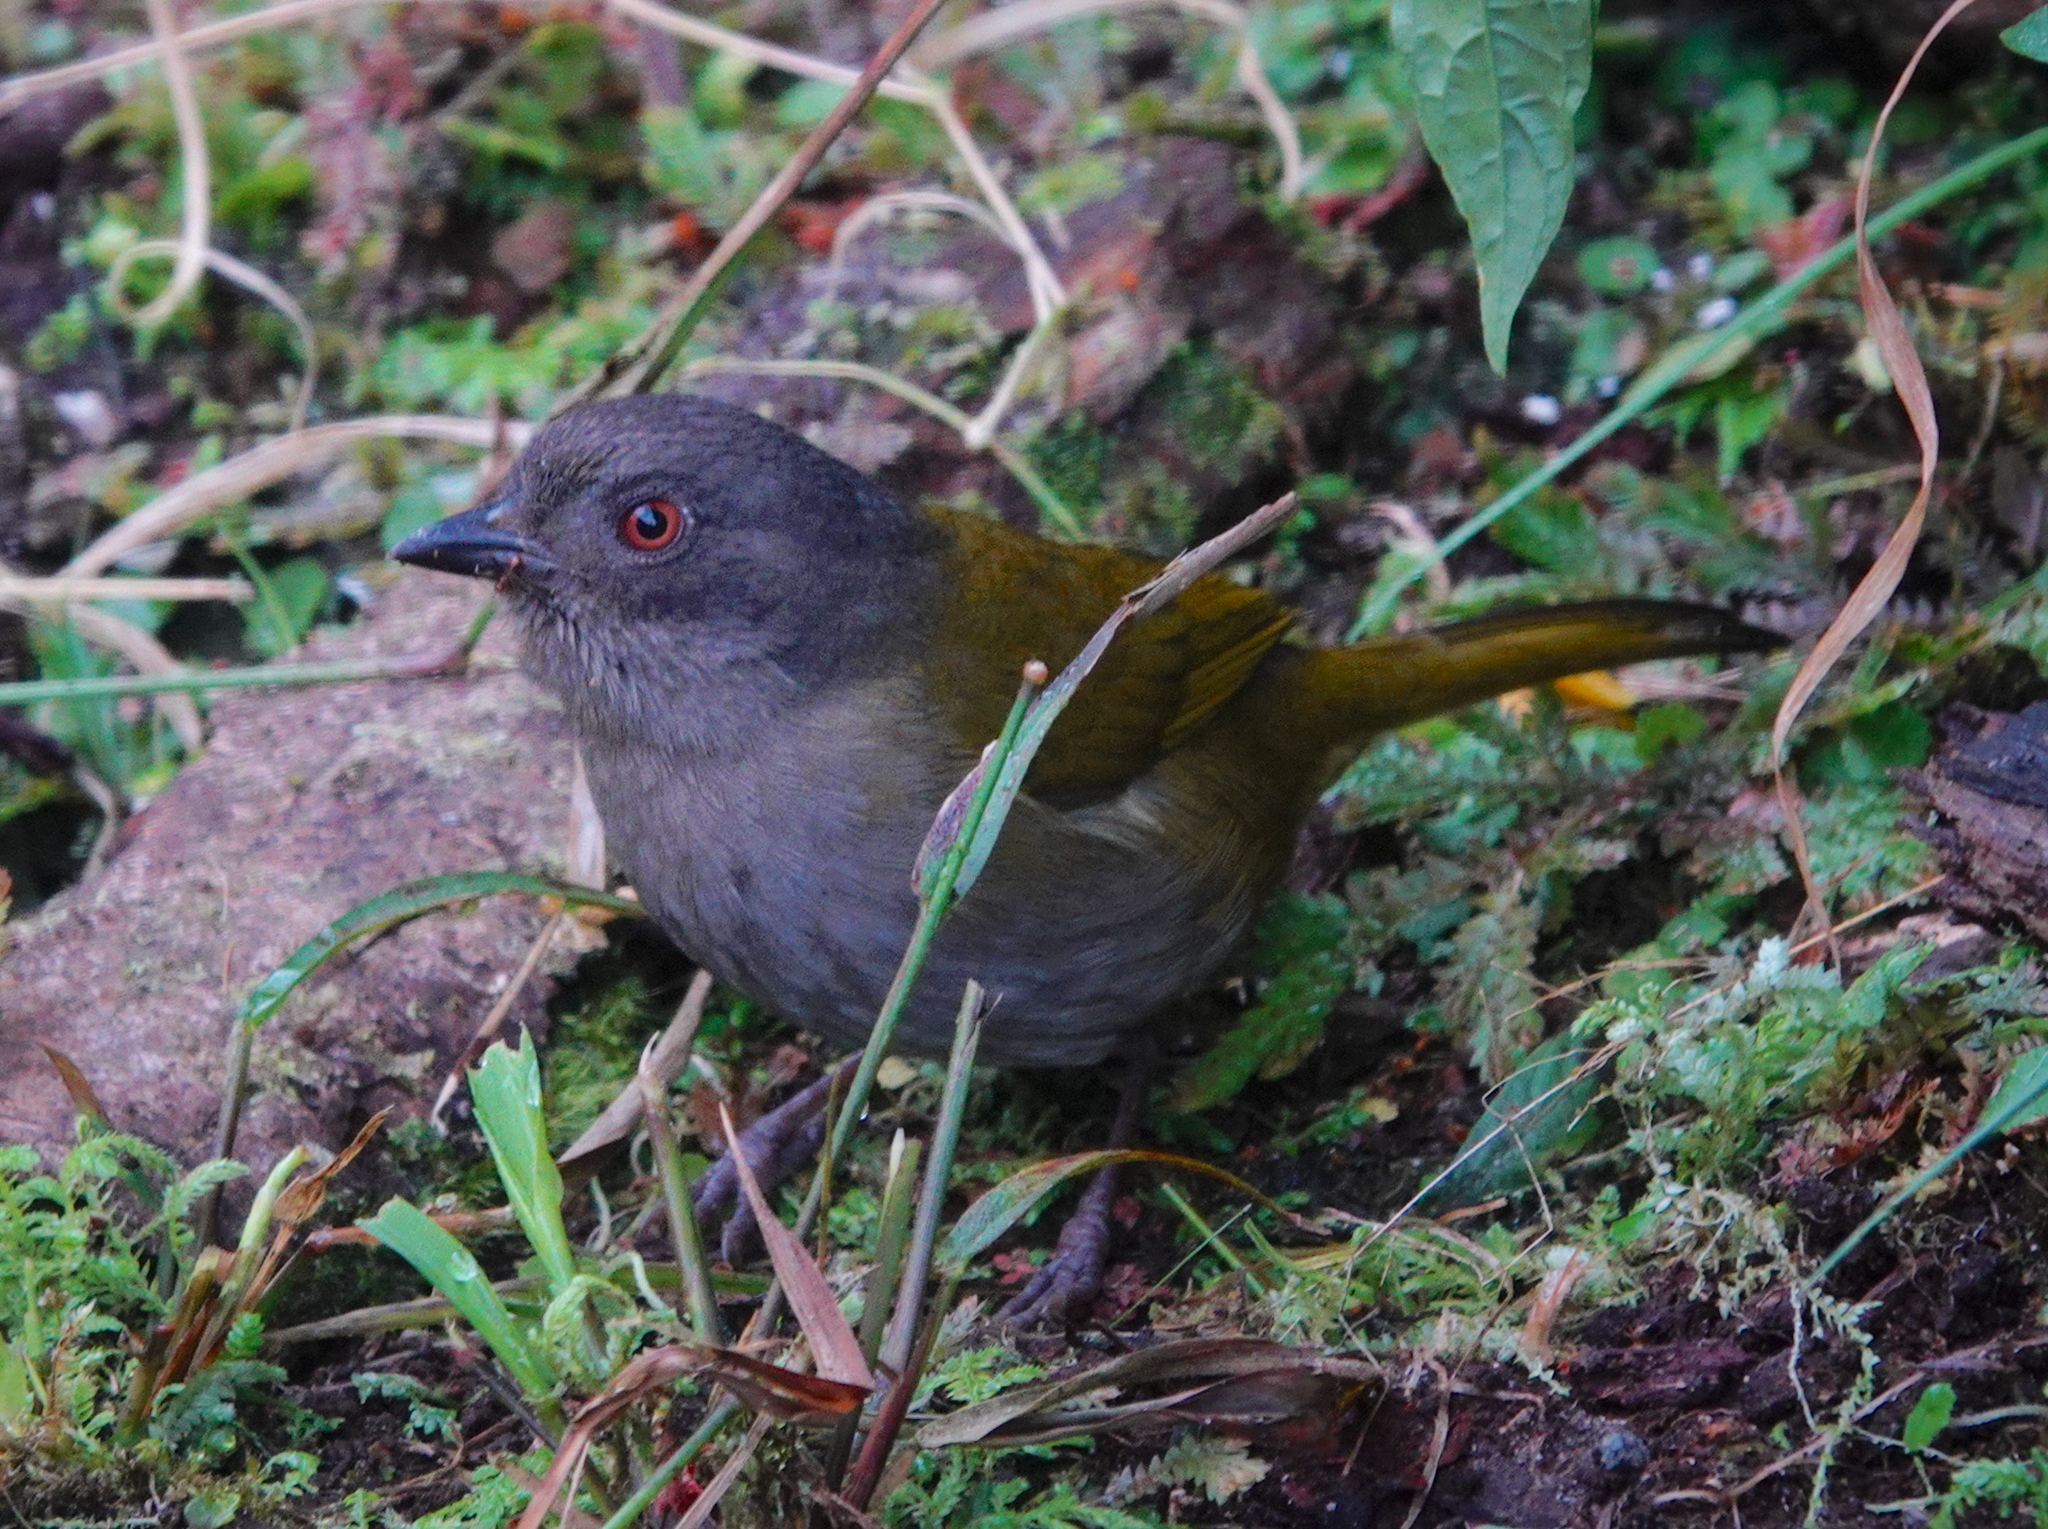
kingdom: Animalia
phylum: Chordata
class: Aves
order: Passeriformes
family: Passerellidae
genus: Chlorospingus
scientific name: Chlorospingus semifuscus
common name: Dusky bush-tanager
